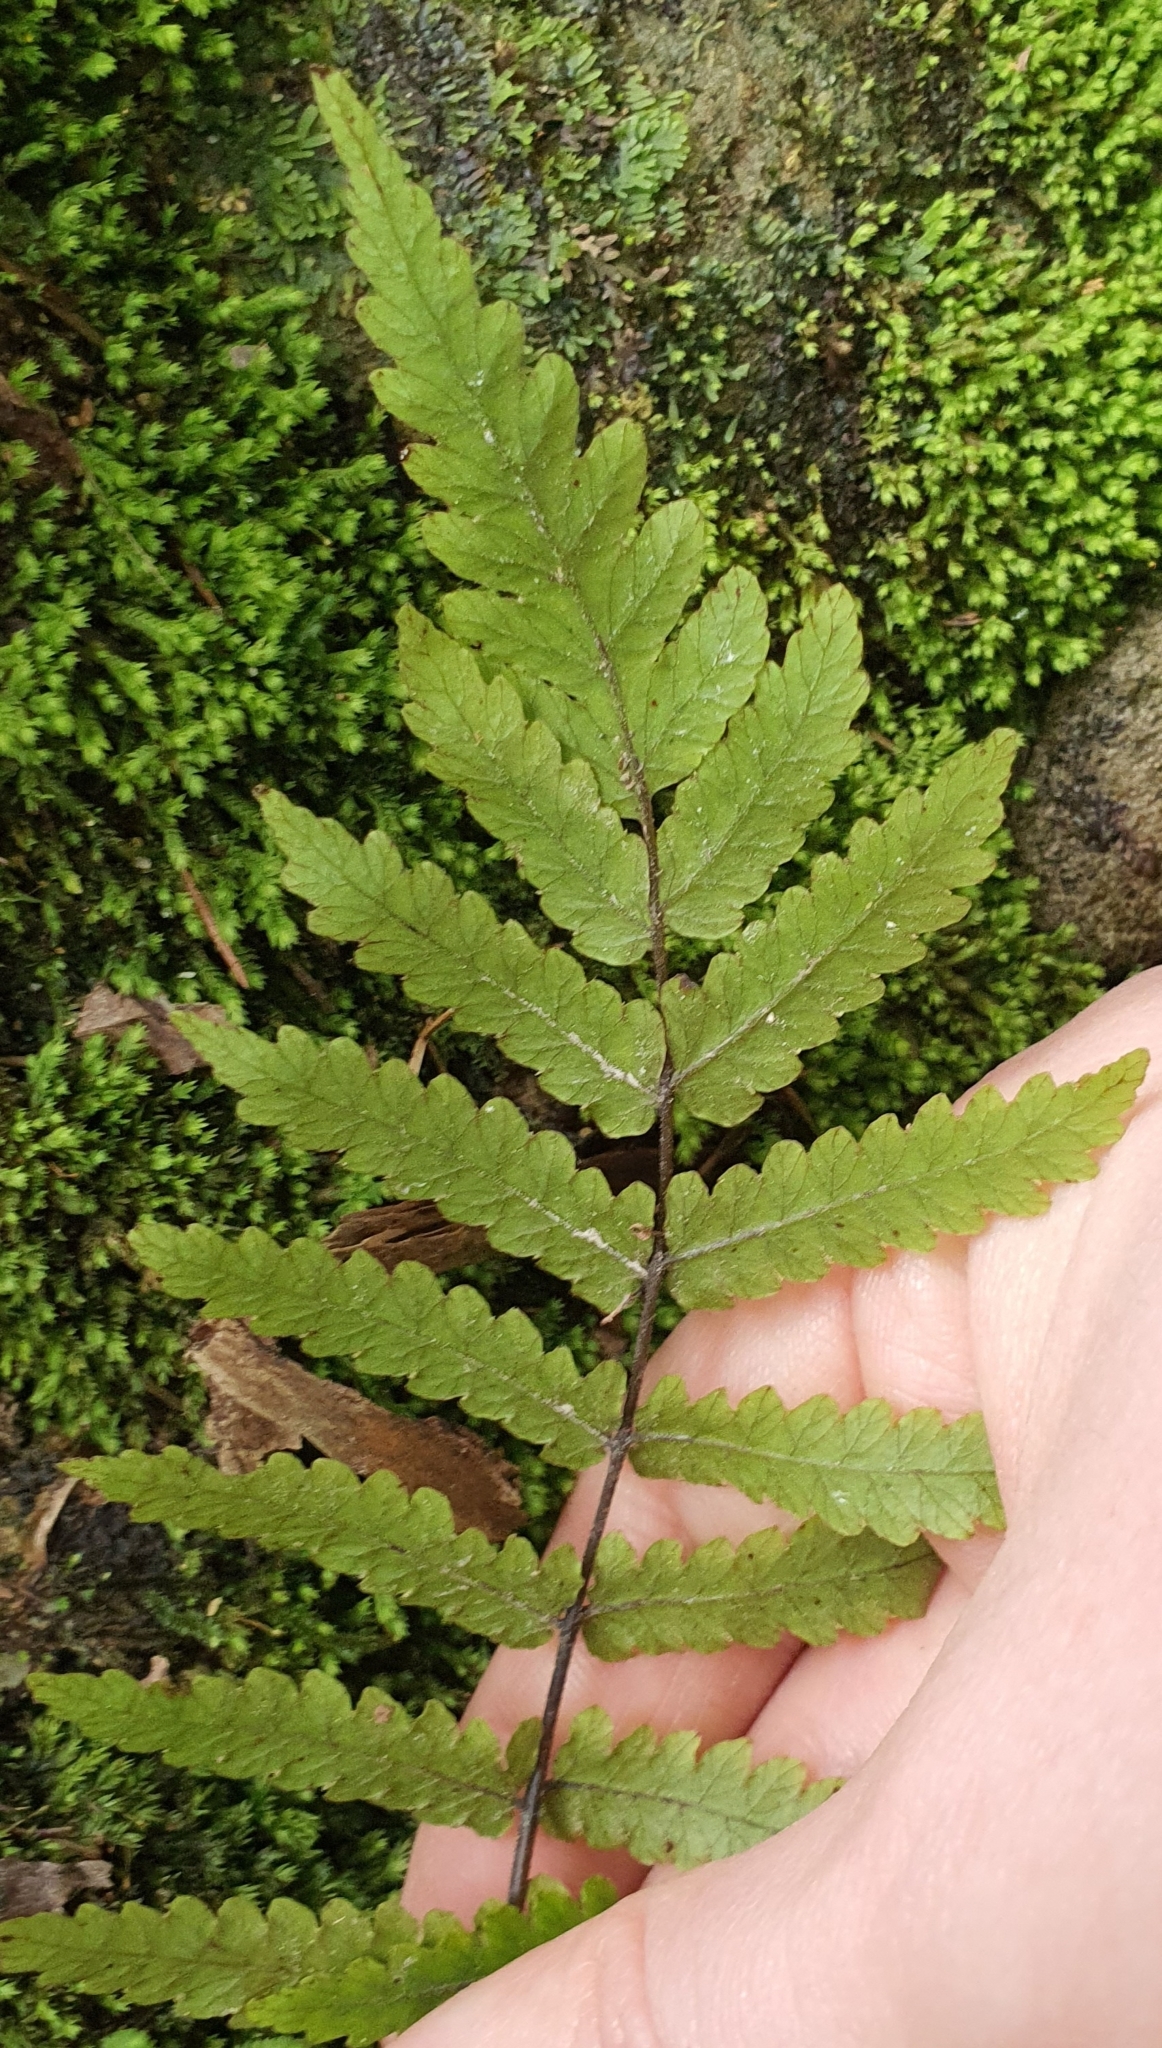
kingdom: Plantae
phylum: Tracheophyta
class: Polypodiopsida
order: Polypodiales
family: Thelypteridaceae
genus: Pakau
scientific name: Pakau pennigera
